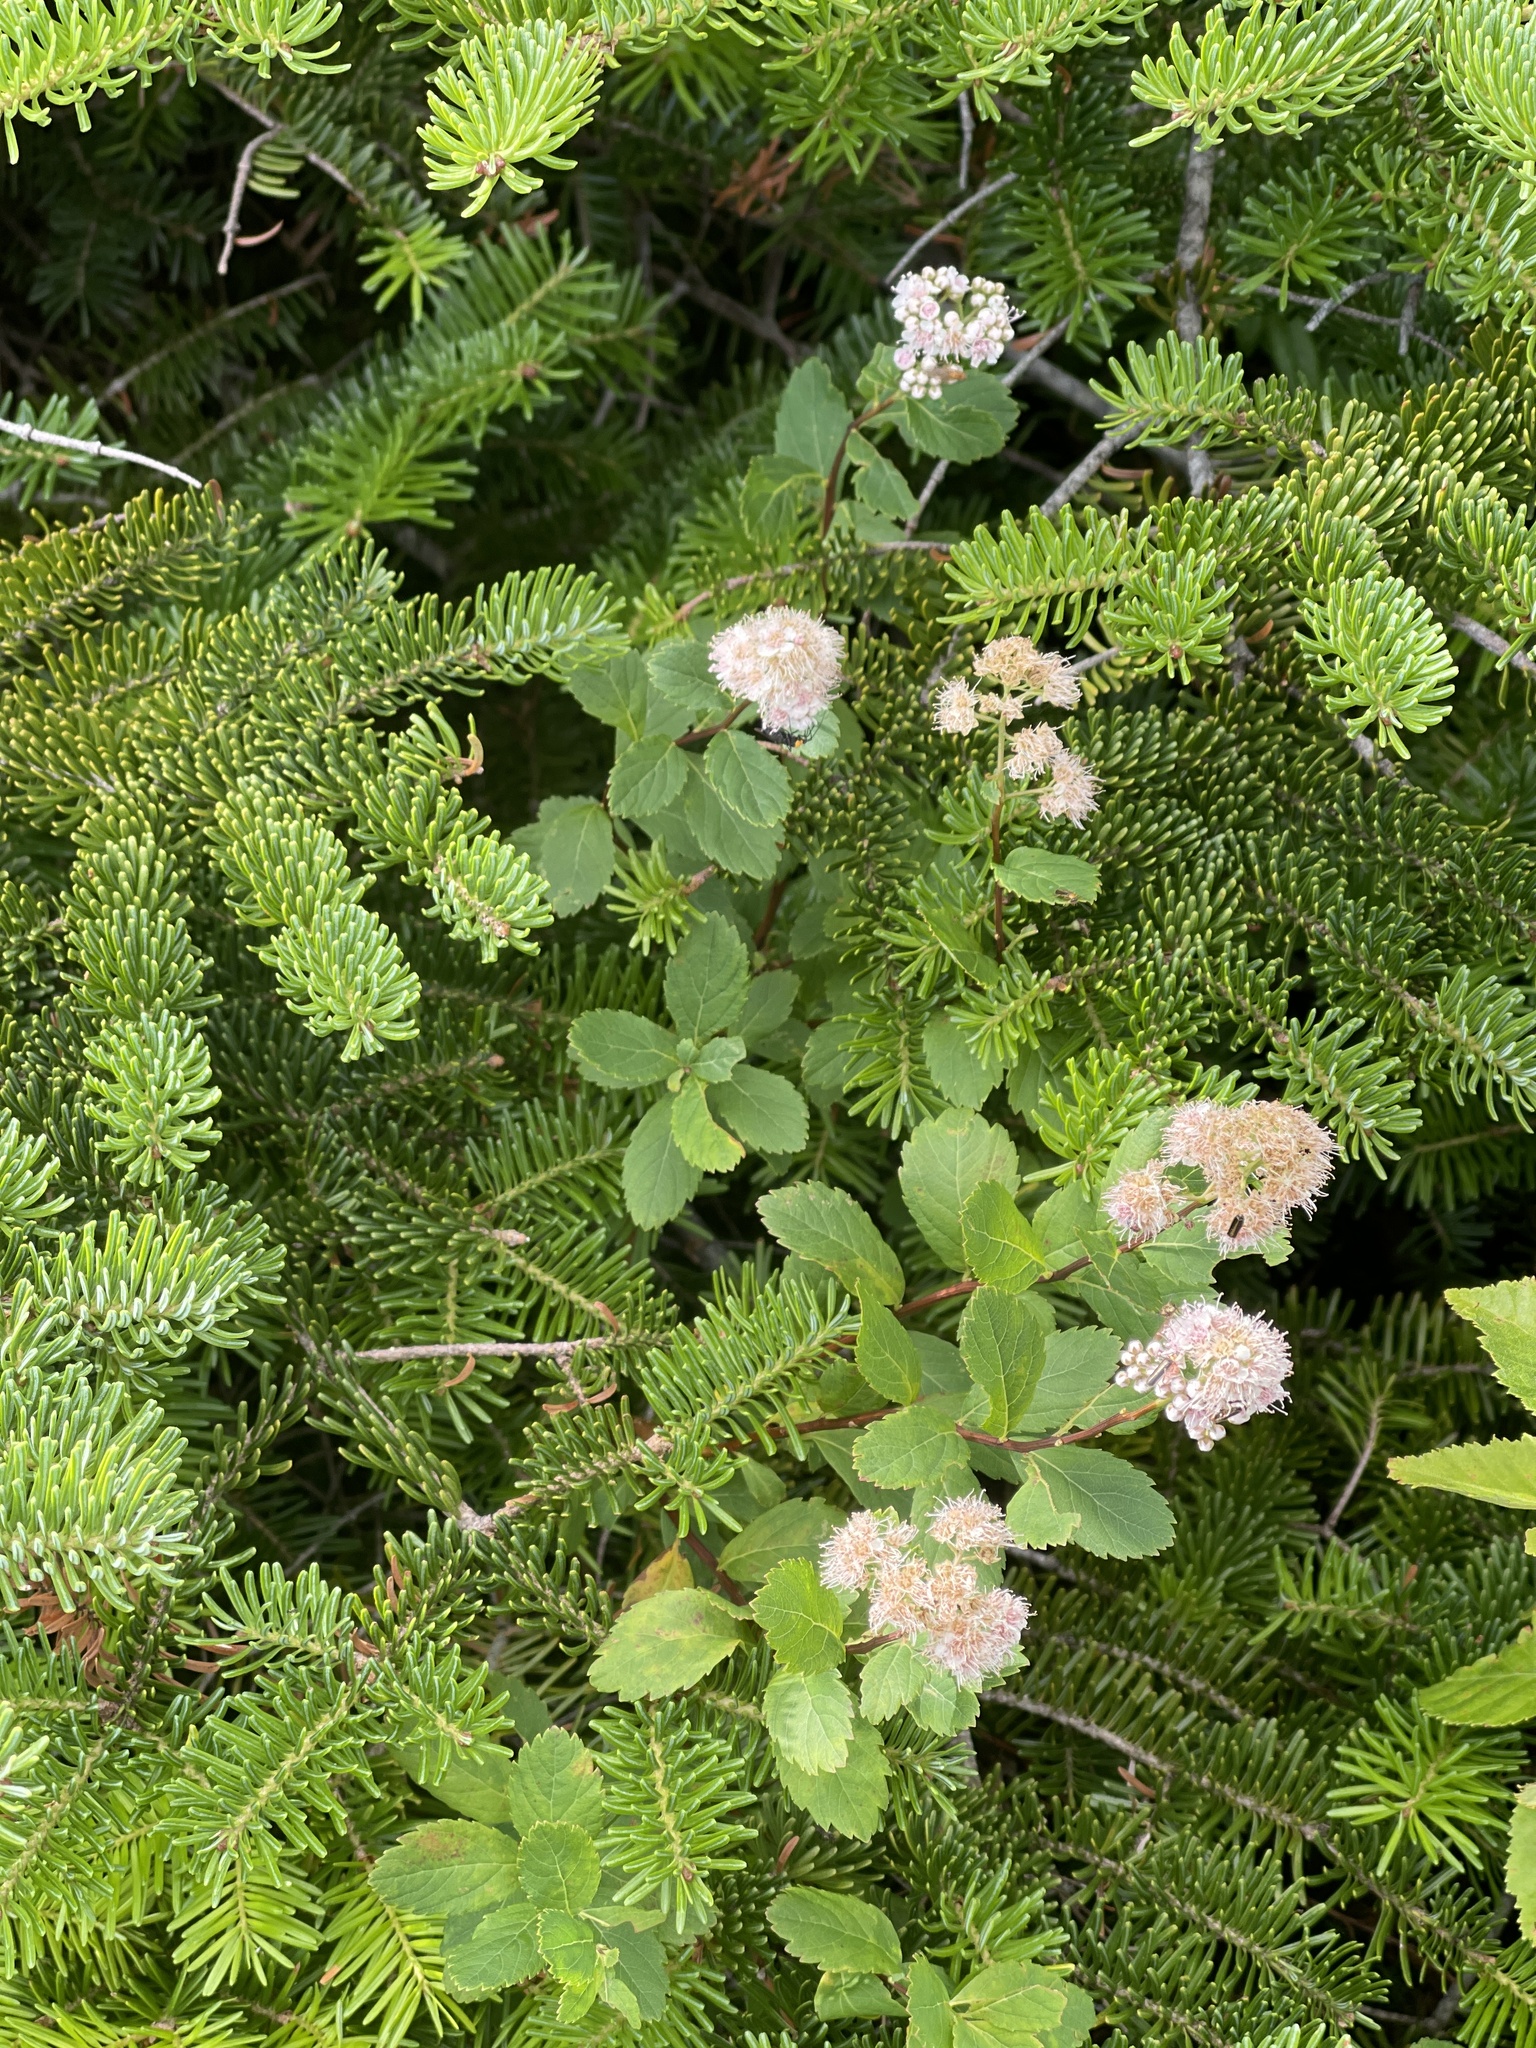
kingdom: Plantae
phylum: Tracheophyta
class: Magnoliopsida
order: Rosales
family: Rosaceae
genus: Spiraea
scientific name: Spiraea alba
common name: Pale bridewort
